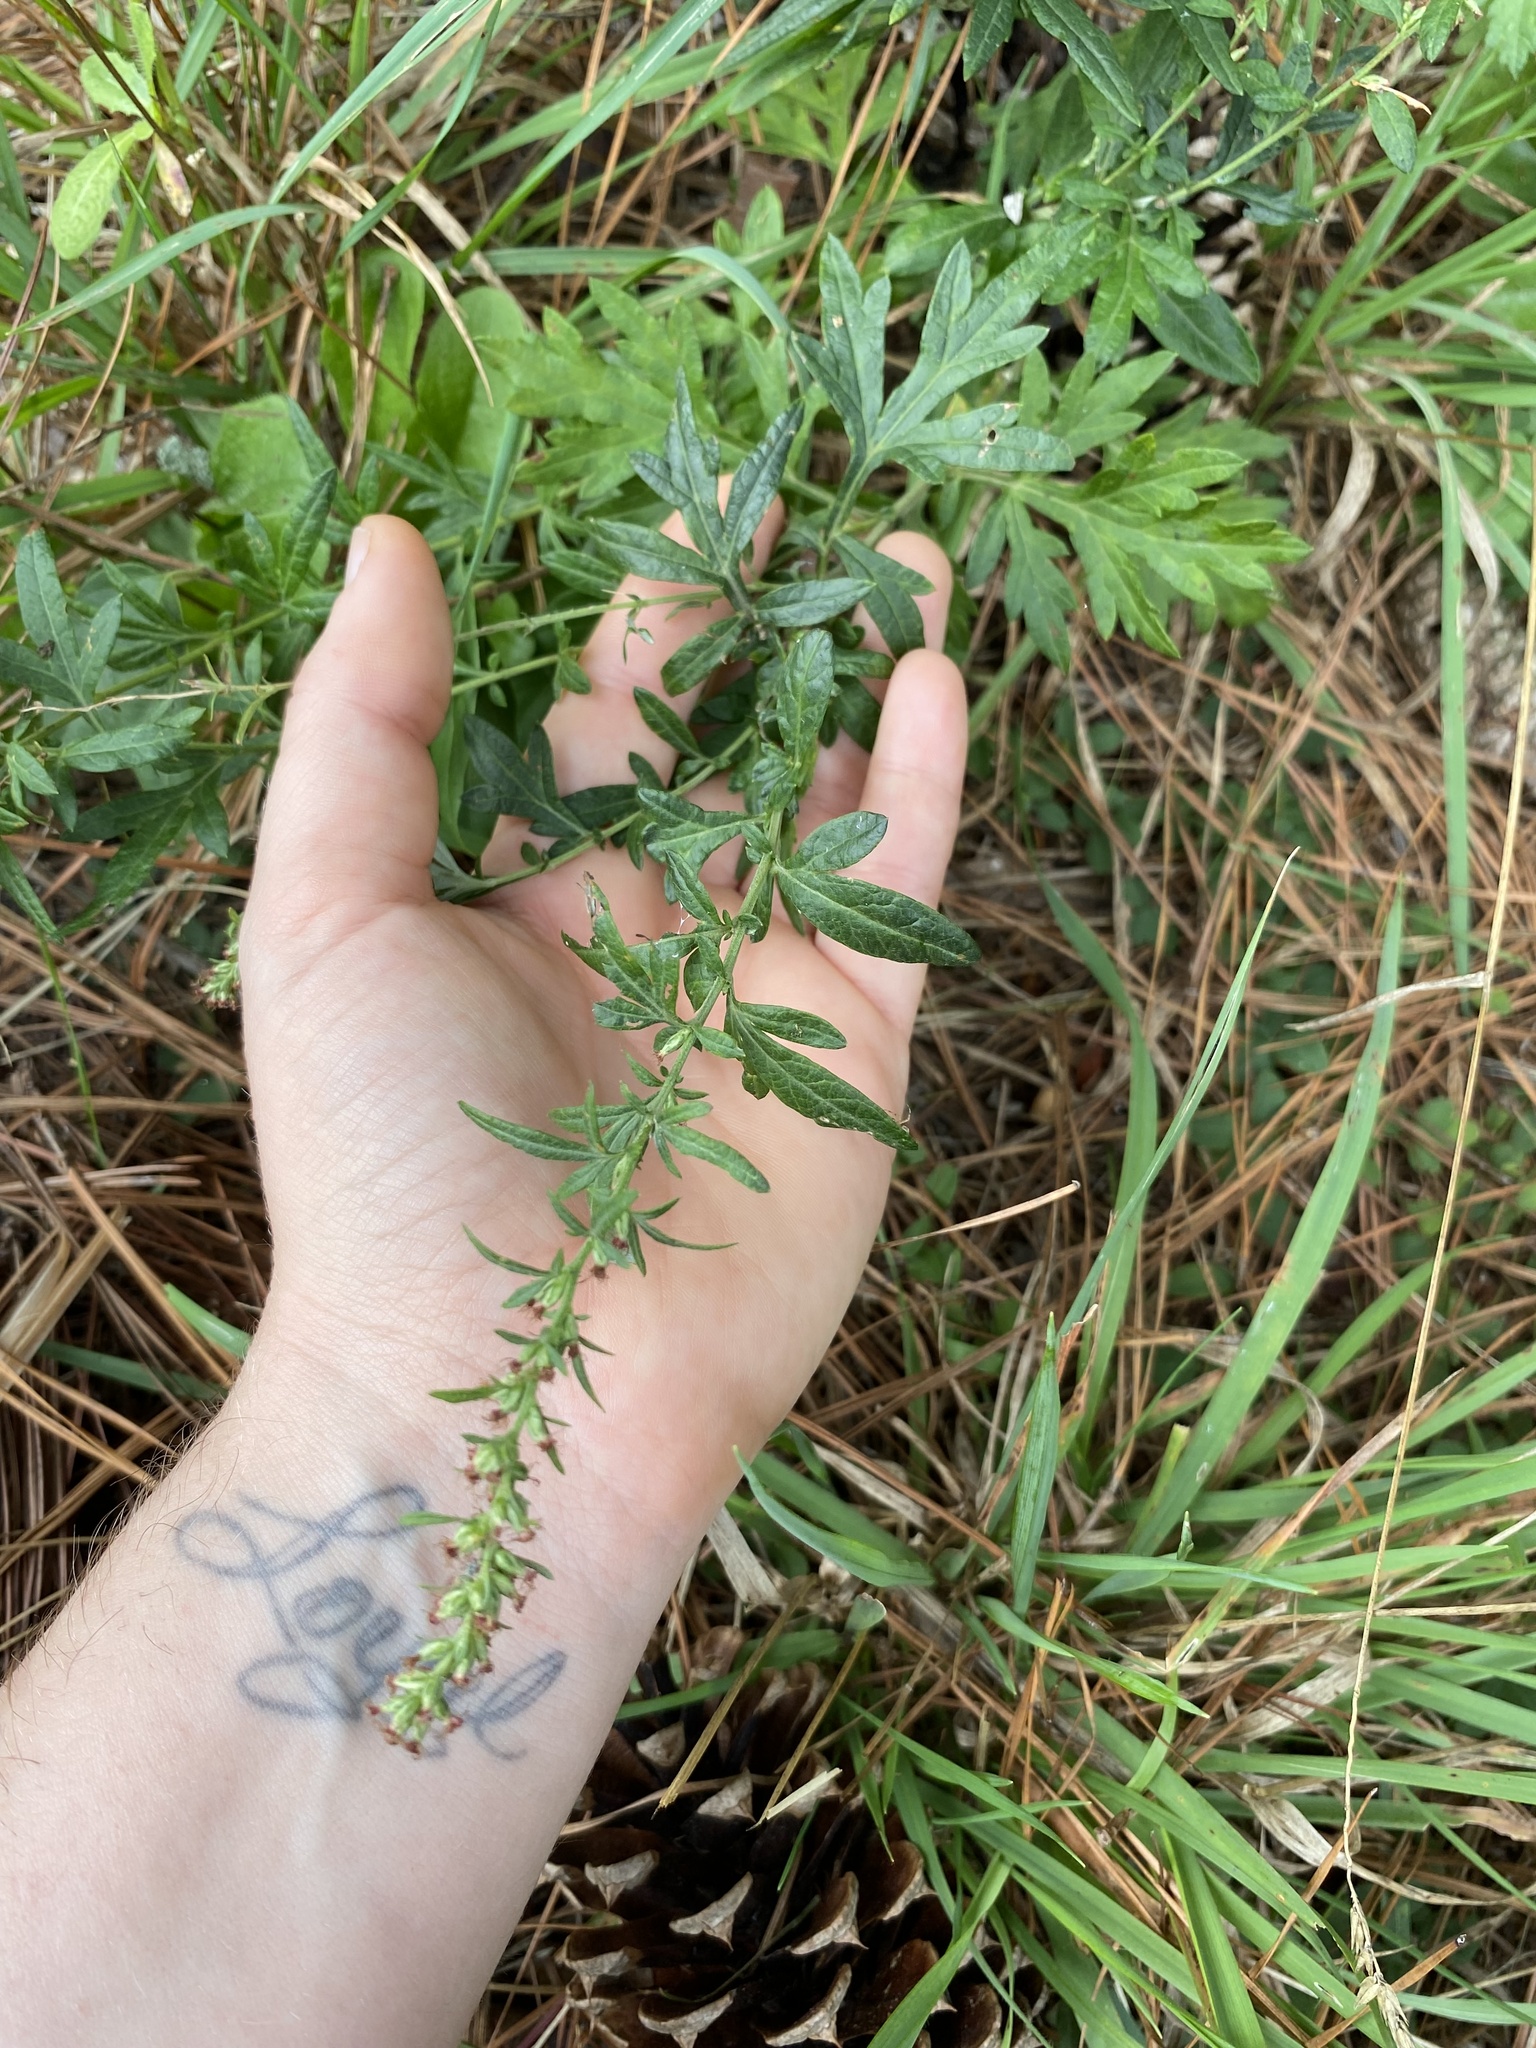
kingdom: Plantae
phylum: Tracheophyta
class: Magnoliopsida
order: Asterales
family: Asteraceae
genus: Artemisia
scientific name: Artemisia vulgaris
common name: Mugwort
